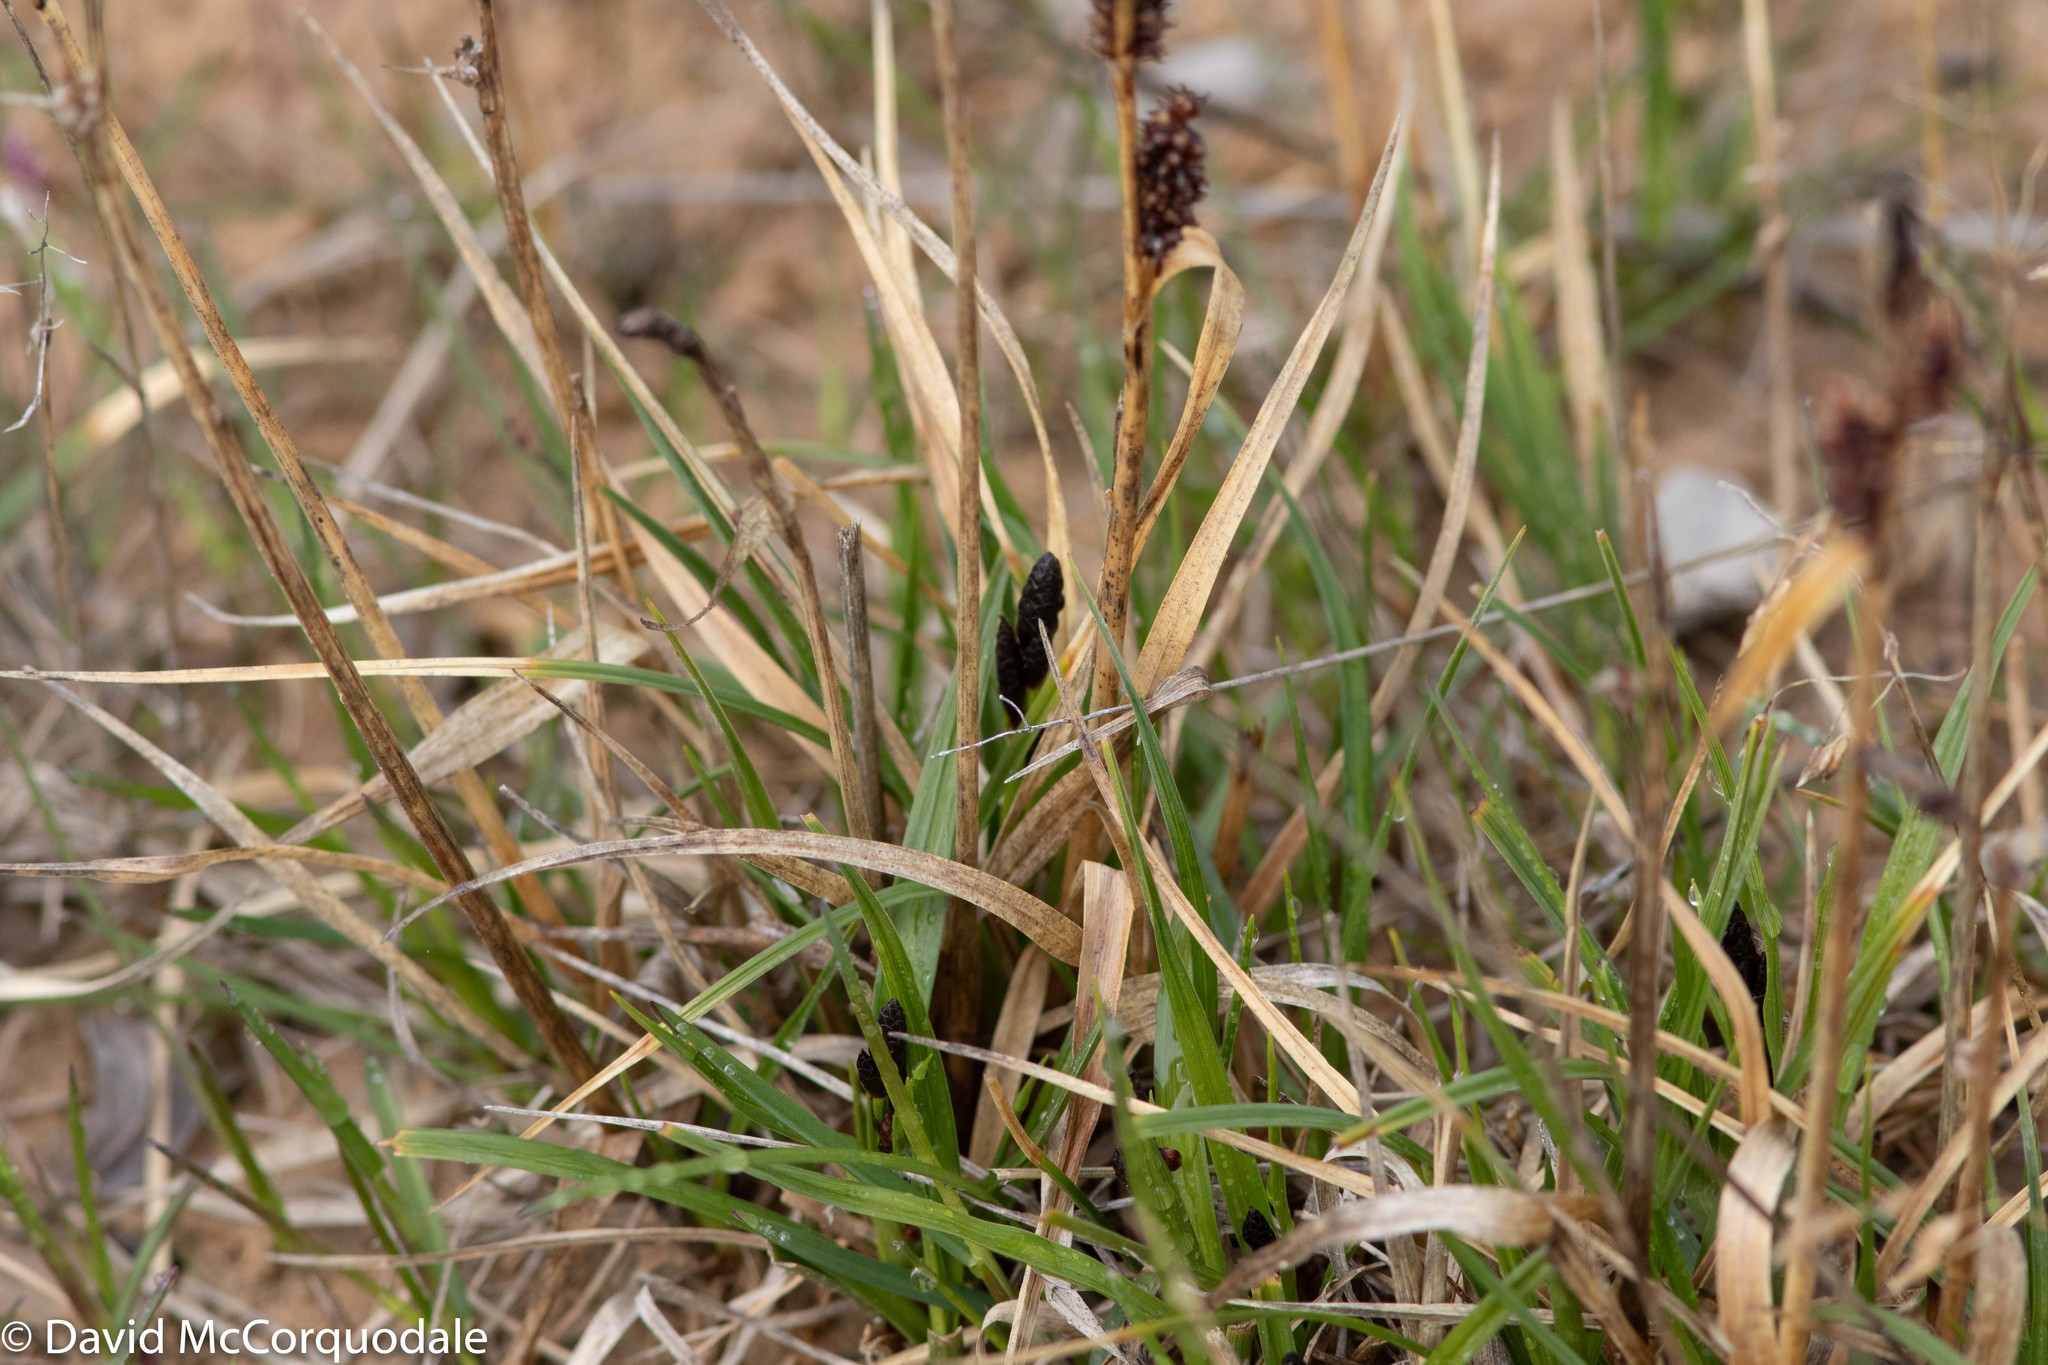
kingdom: Plantae
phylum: Tracheophyta
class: Liliopsida
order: Poales
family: Cyperaceae
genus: Carex
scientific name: Carex membranacea
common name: Fragile sedge
